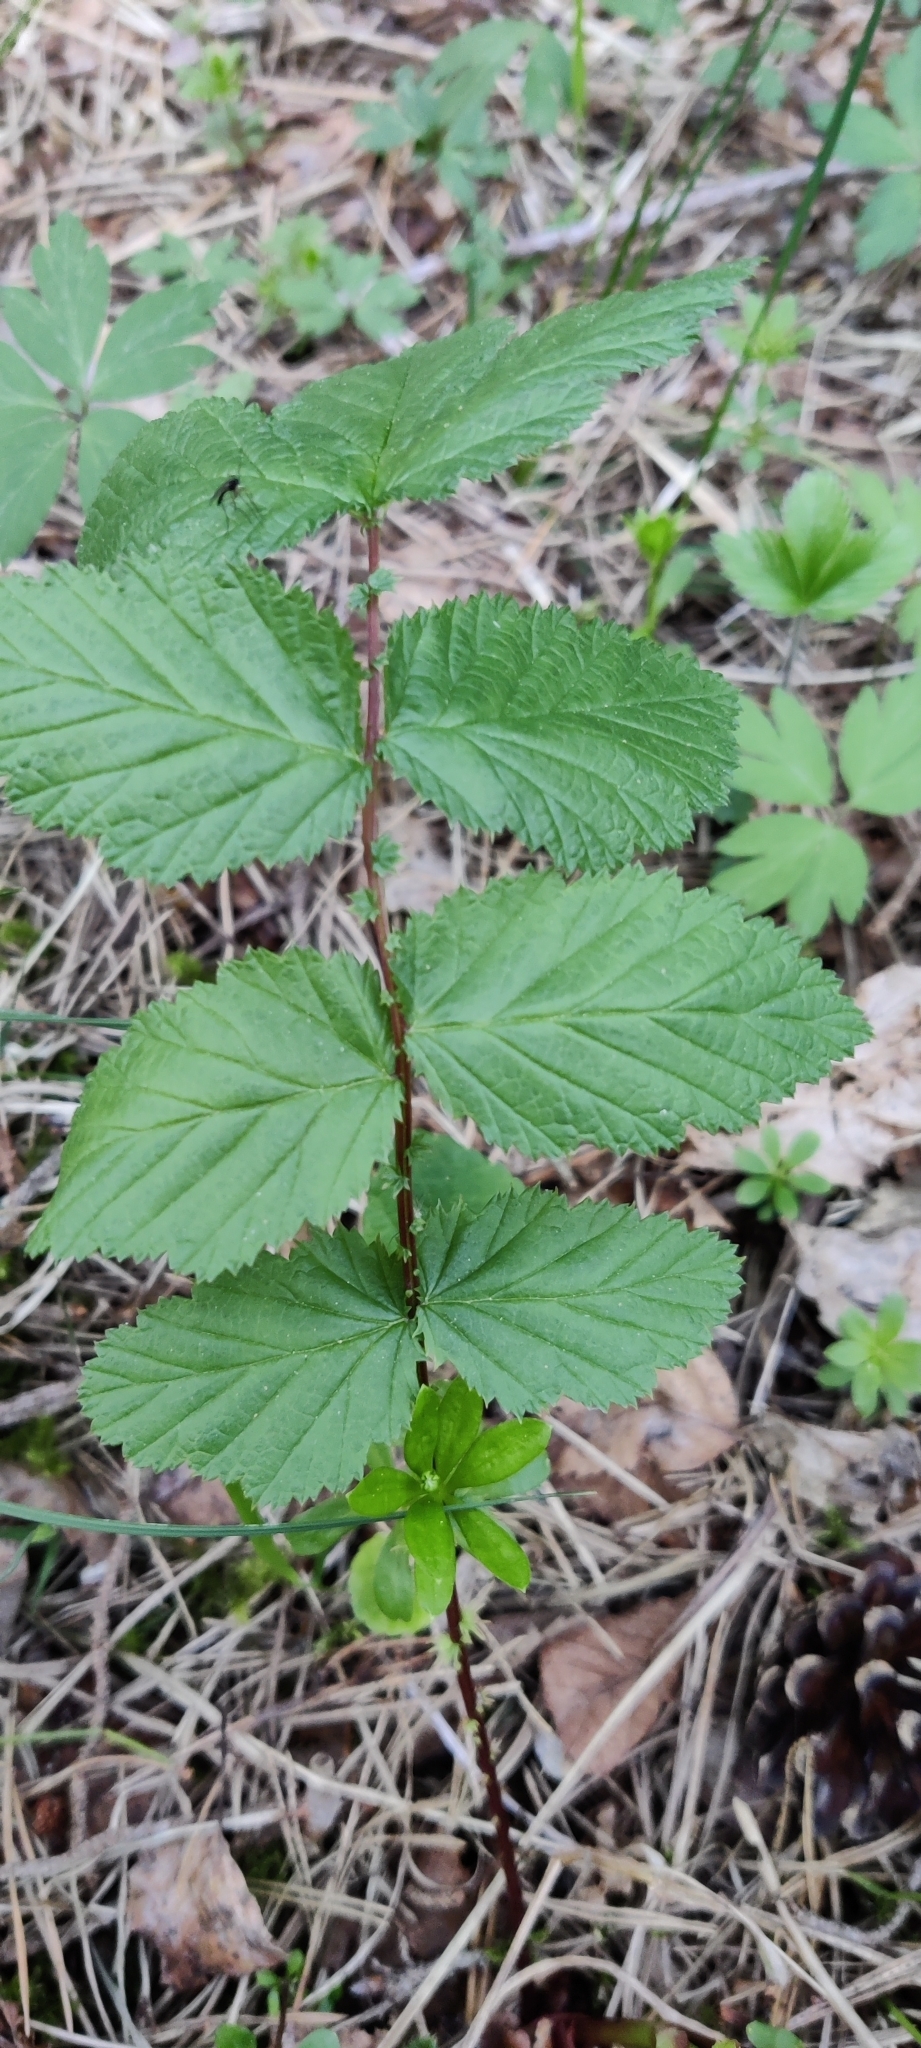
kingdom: Plantae
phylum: Tracheophyta
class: Magnoliopsida
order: Rosales
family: Rosaceae
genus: Filipendula
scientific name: Filipendula ulmaria
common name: Meadowsweet
